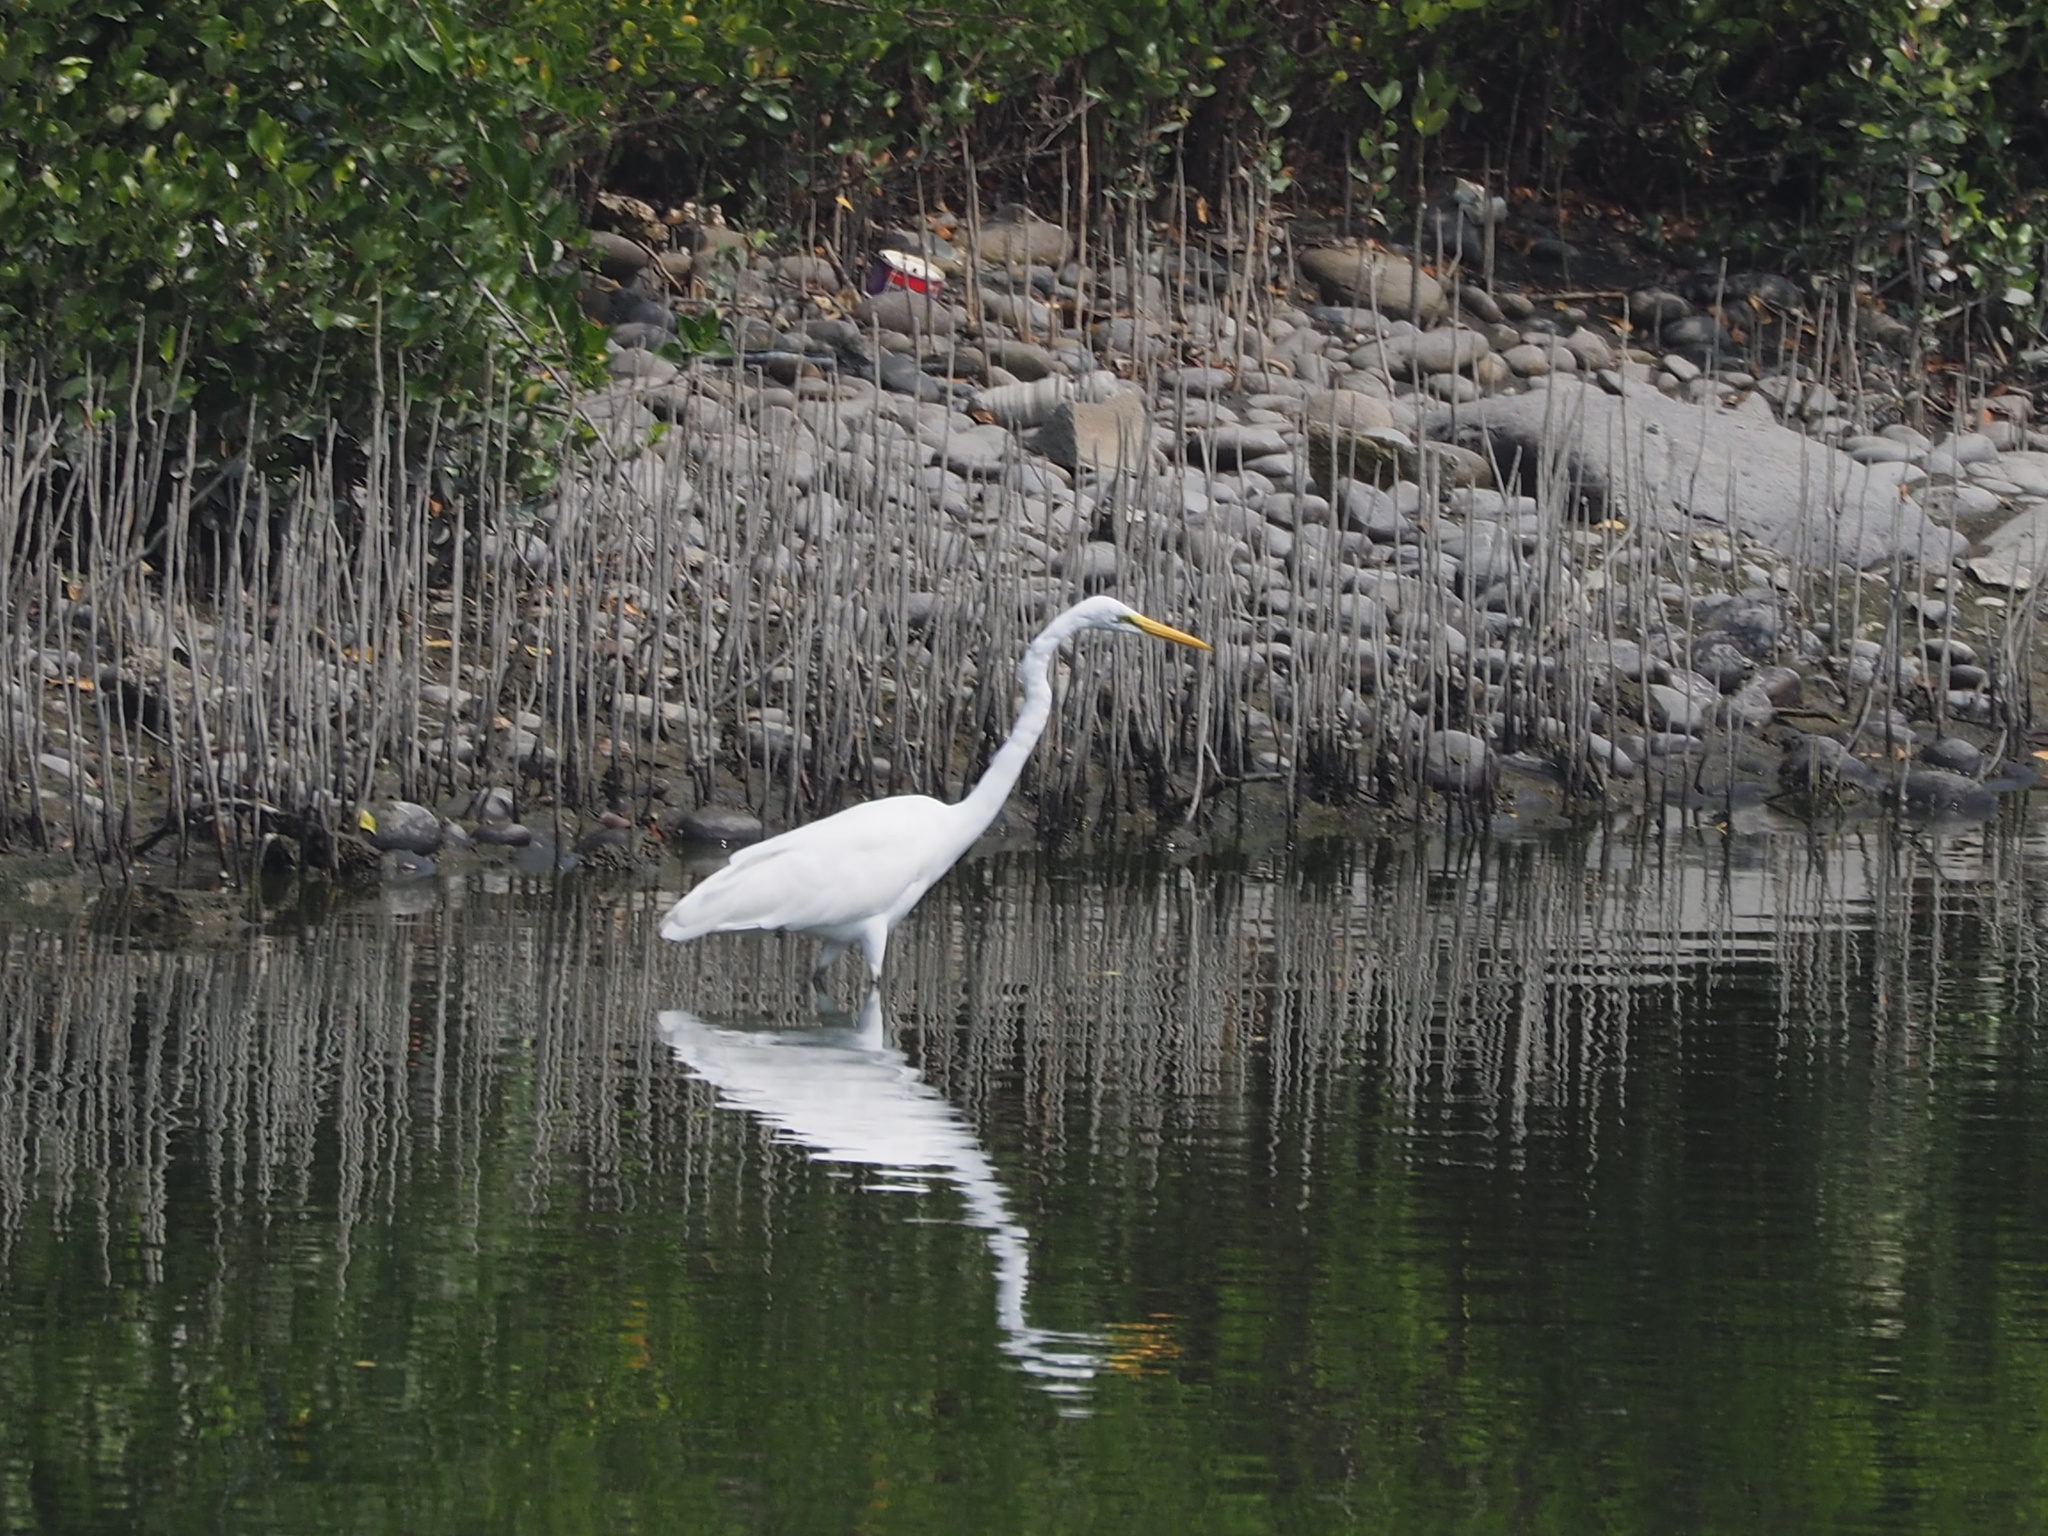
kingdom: Animalia
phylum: Chordata
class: Aves
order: Pelecaniformes
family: Ardeidae
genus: Ardea
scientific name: Ardea alba
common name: Great egret
